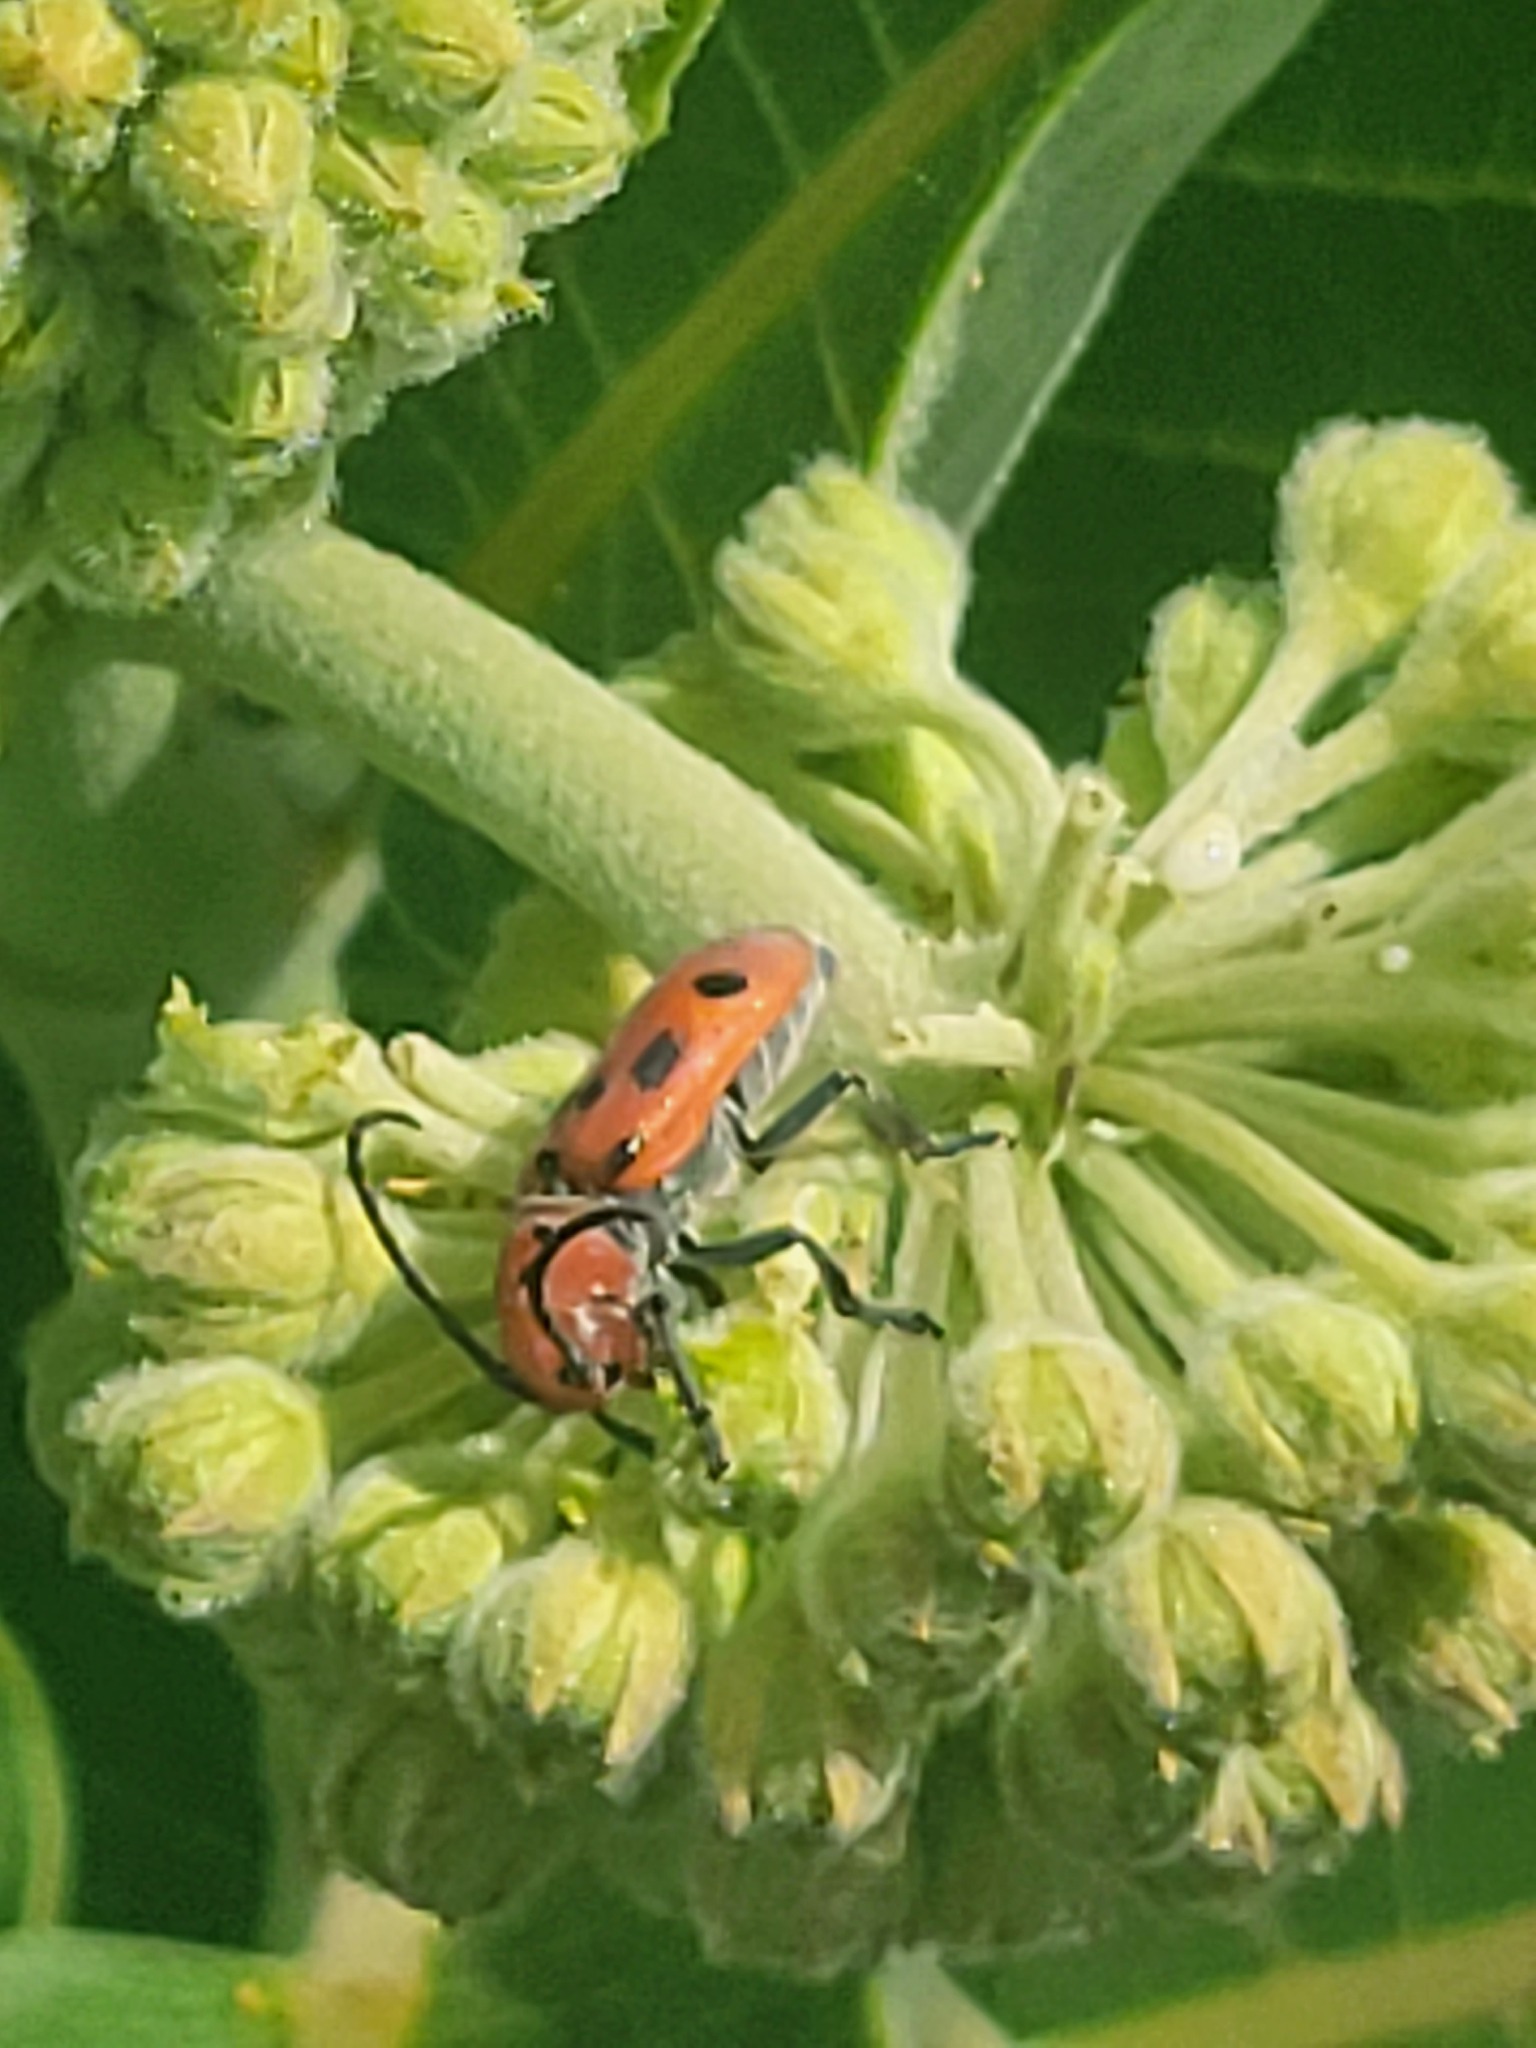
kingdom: Animalia
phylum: Arthropoda
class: Insecta
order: Coleoptera
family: Cerambycidae
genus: Tetraopes
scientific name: Tetraopes tetrophthalmus
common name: Red milkweed beetle
